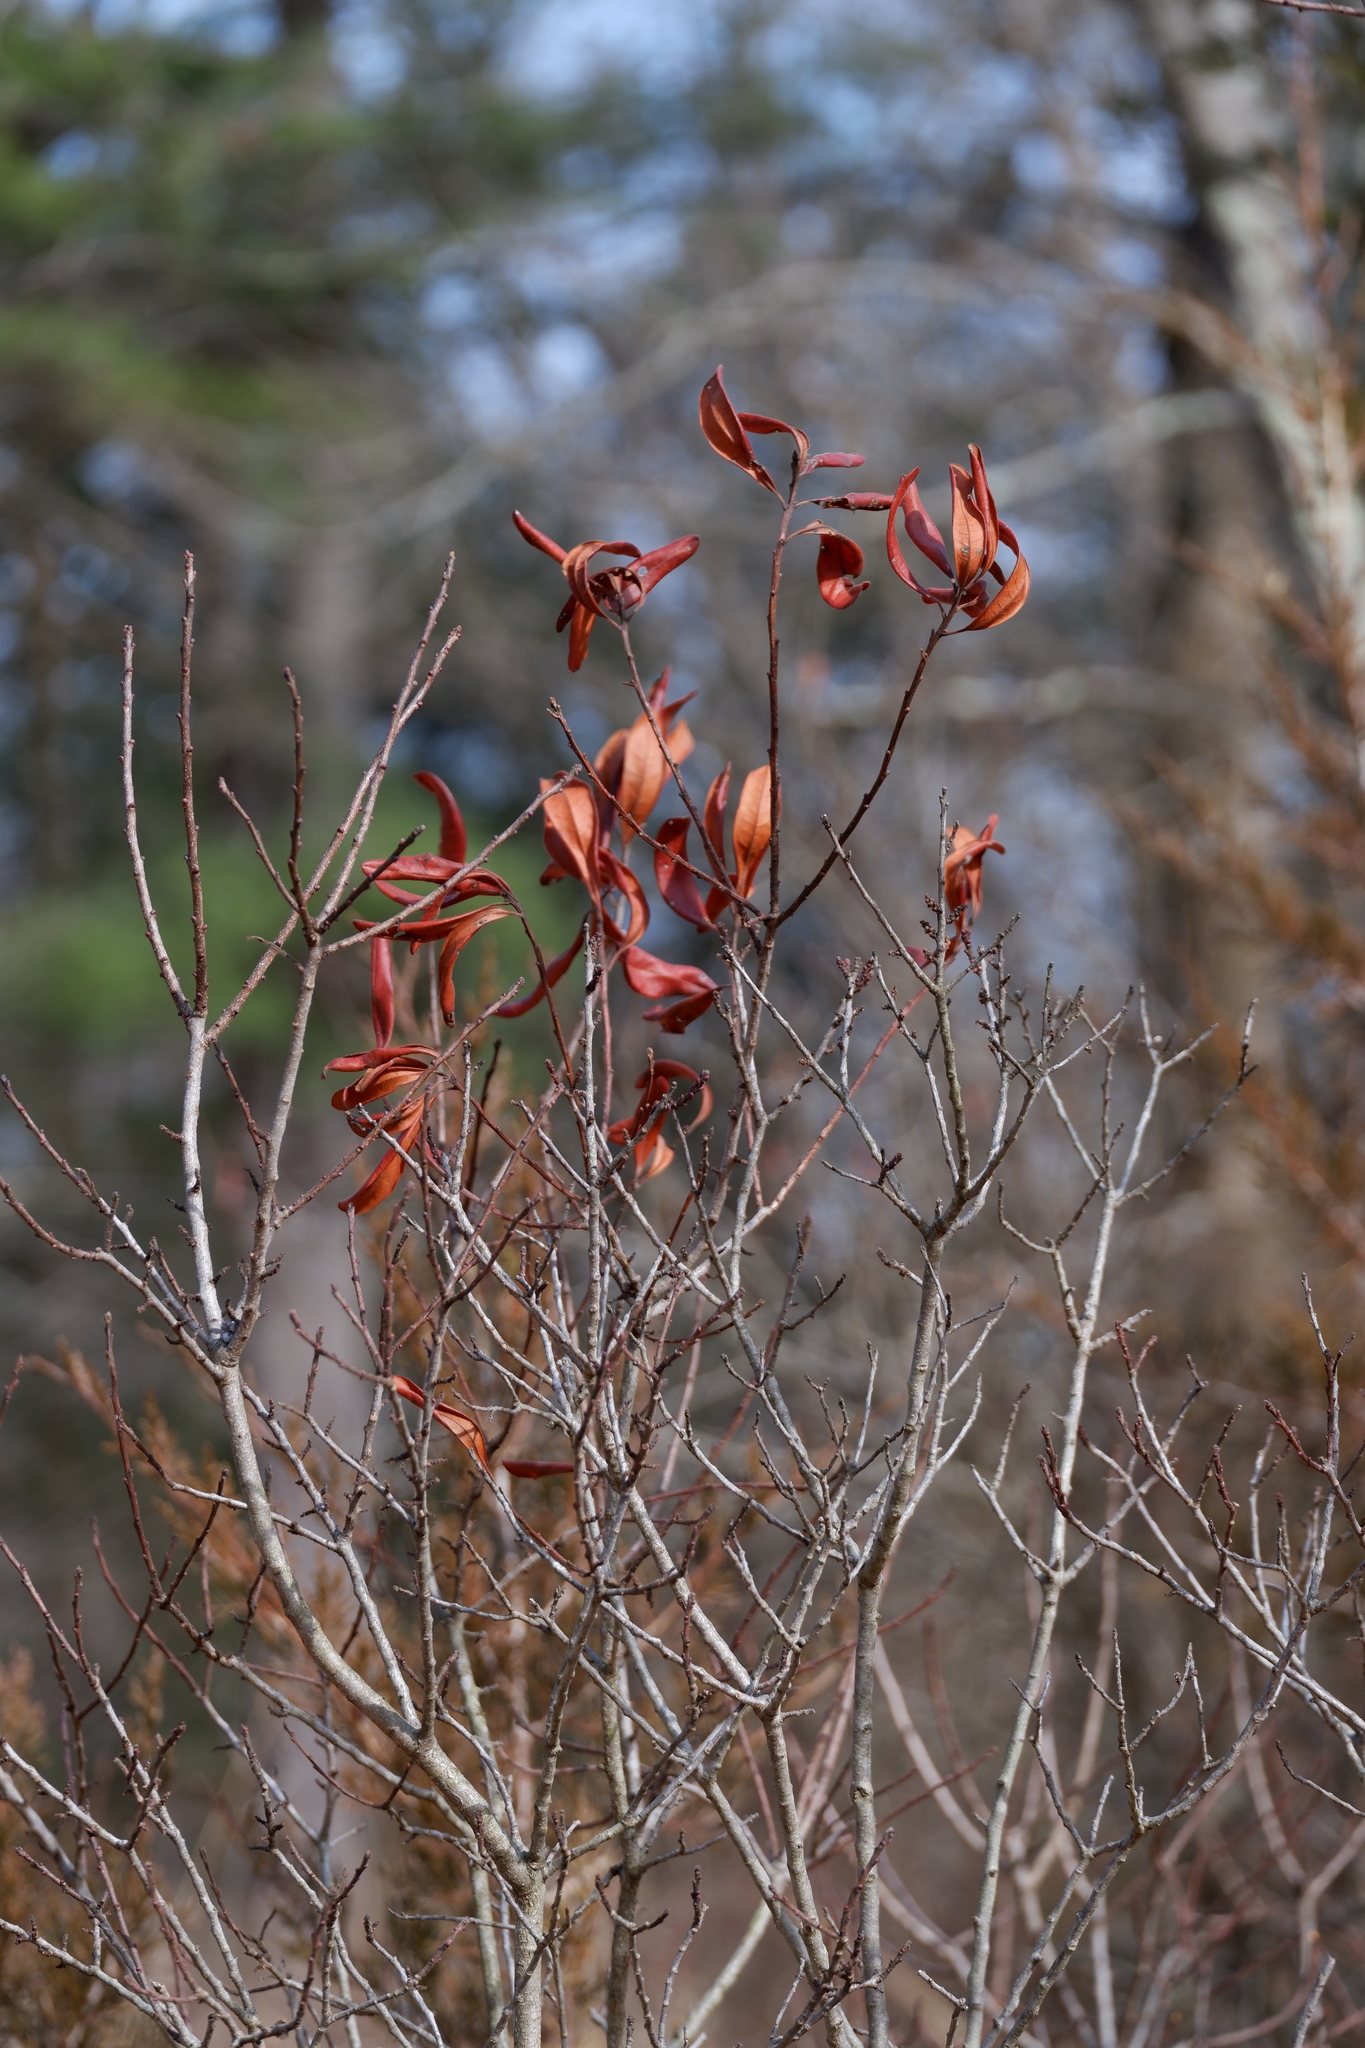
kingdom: Plantae
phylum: Tracheophyta
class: Magnoliopsida
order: Fagales
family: Myricaceae
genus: Morella
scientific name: Morella pensylvanica
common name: Northern bayberry
